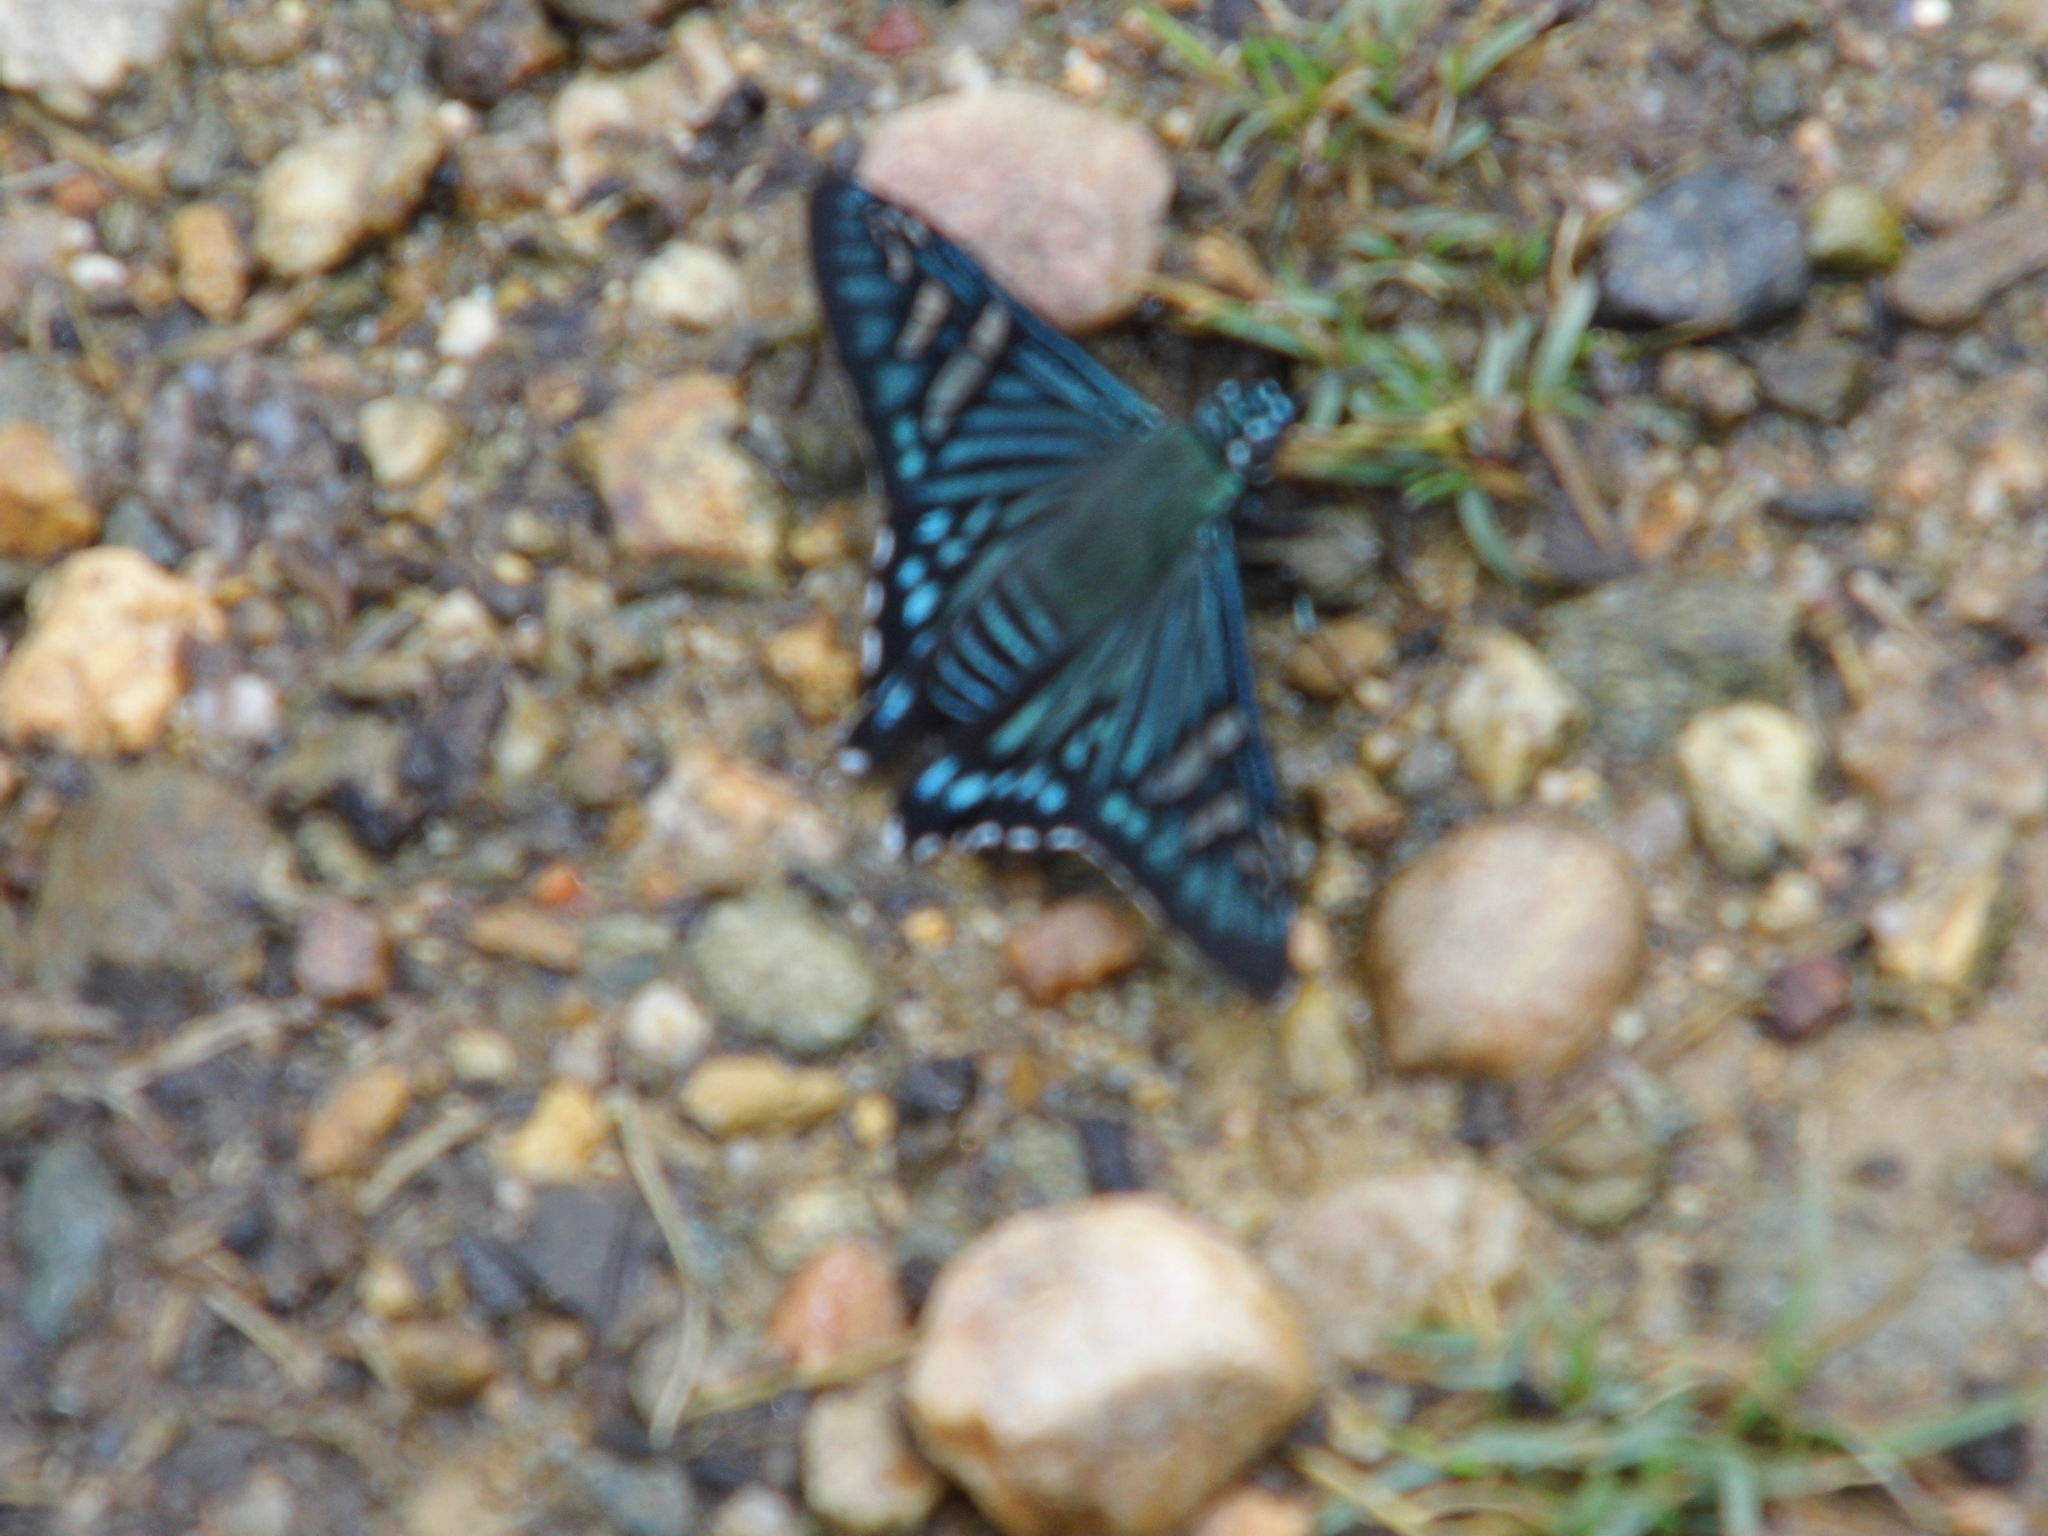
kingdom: Animalia
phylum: Arthropoda
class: Insecta
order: Lepidoptera
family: Hesperiidae
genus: Phocides
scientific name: Phocides urania
